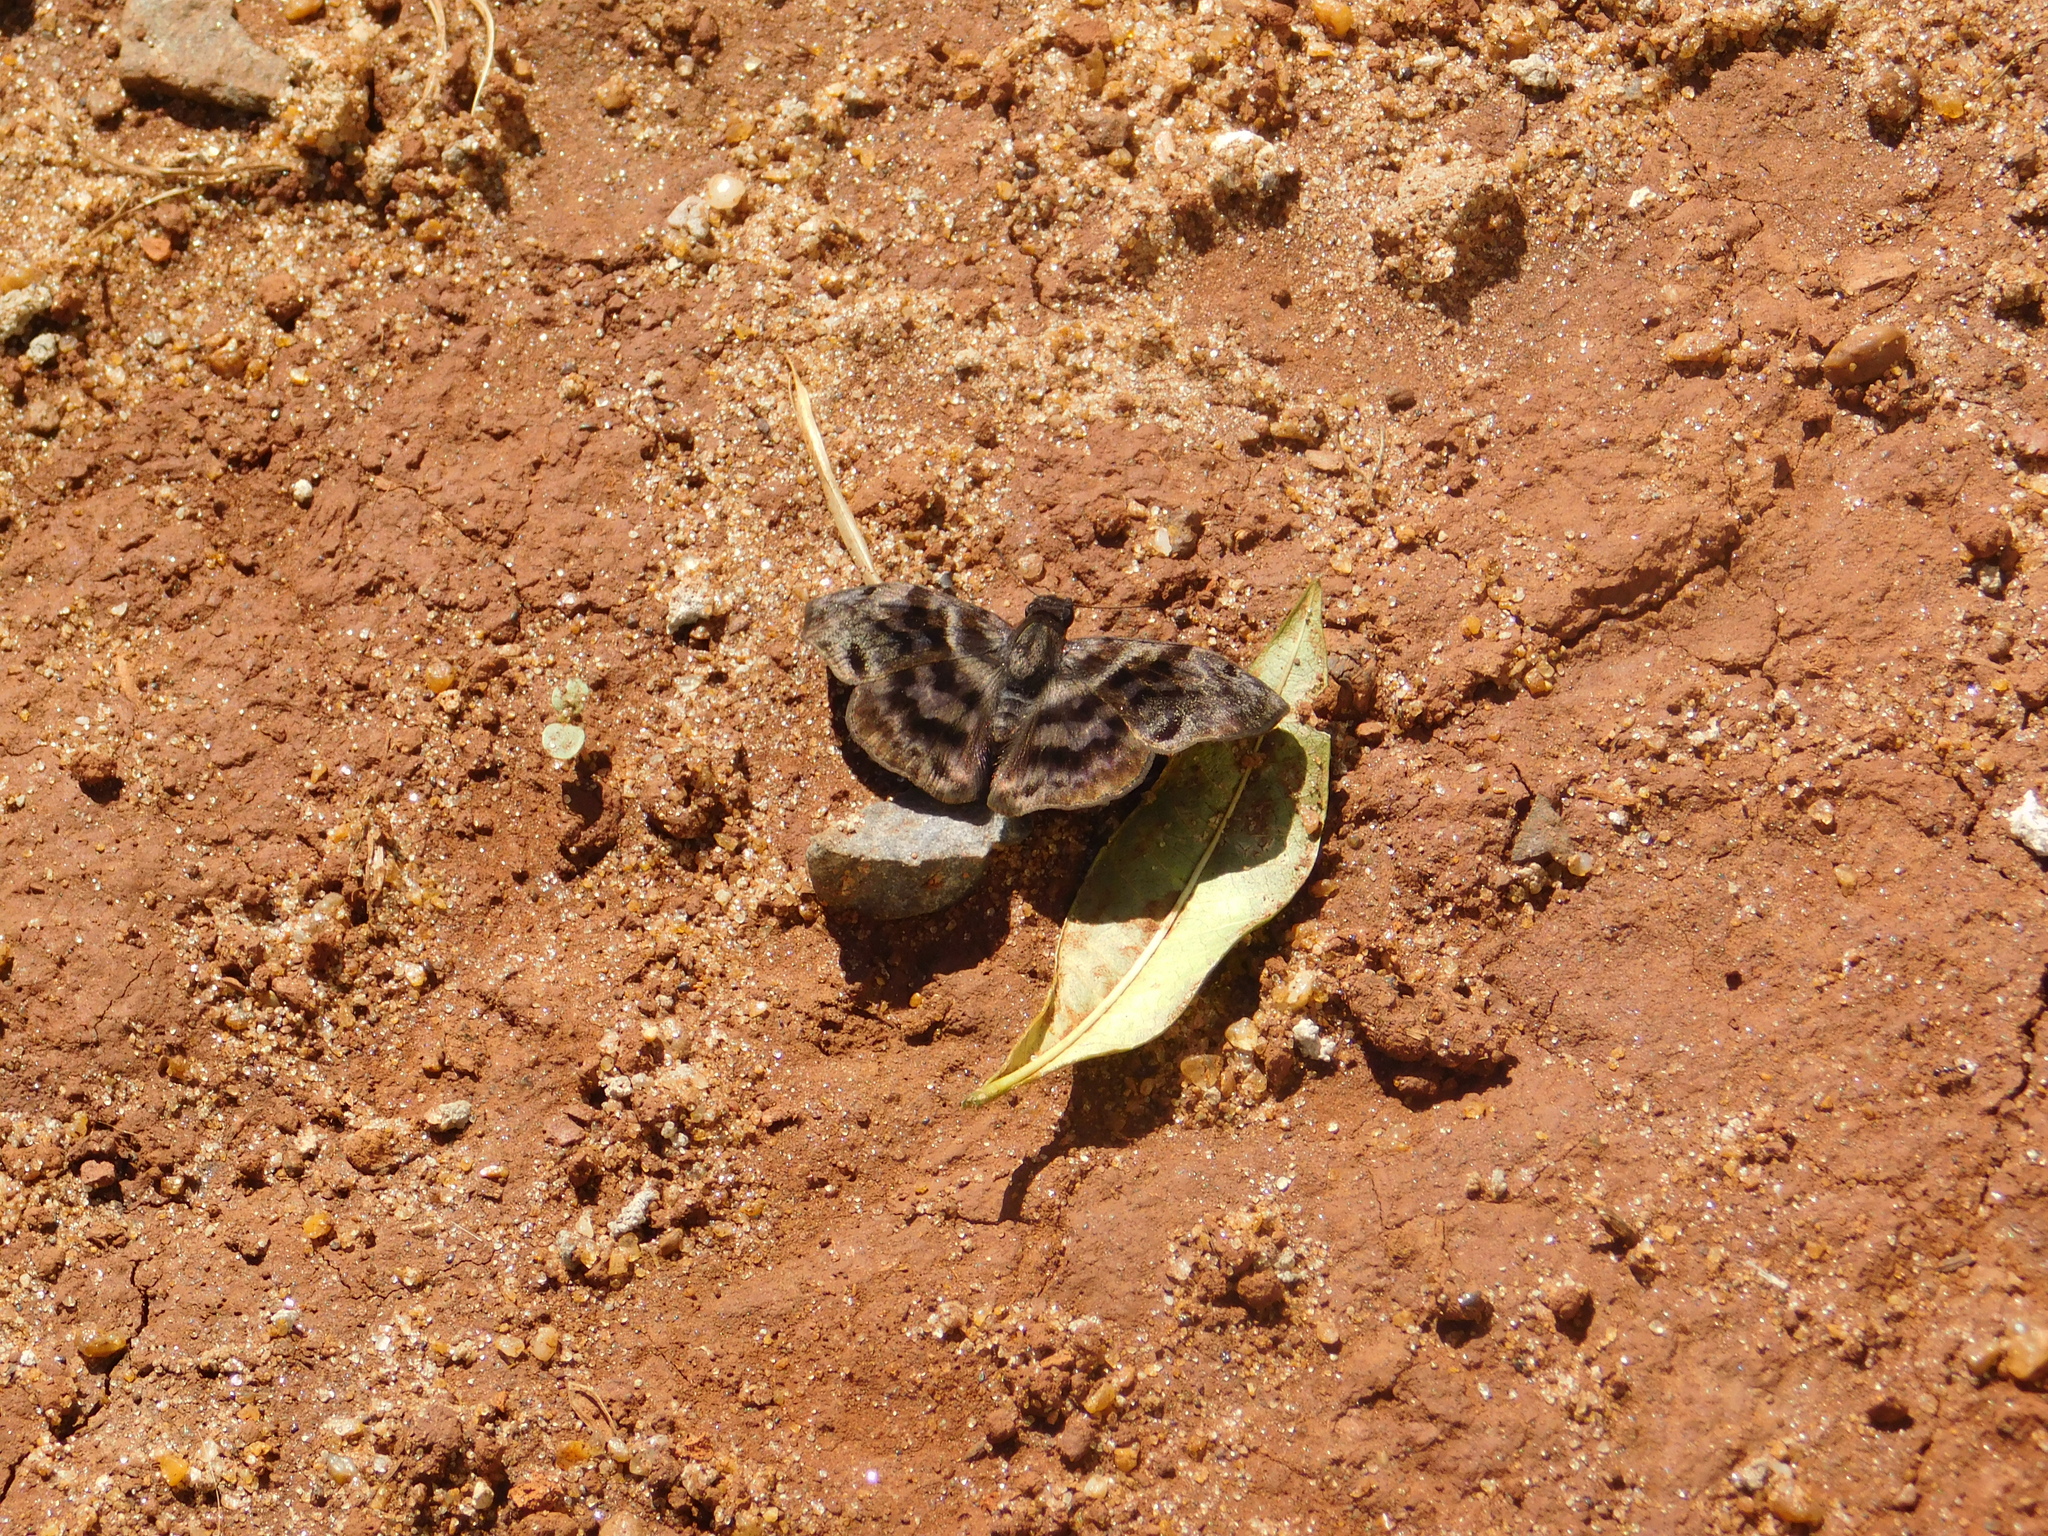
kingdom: Animalia
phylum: Arthropoda
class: Insecta
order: Lepidoptera
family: Hesperiidae
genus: Ebrietas
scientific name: Ebrietas anacreon
